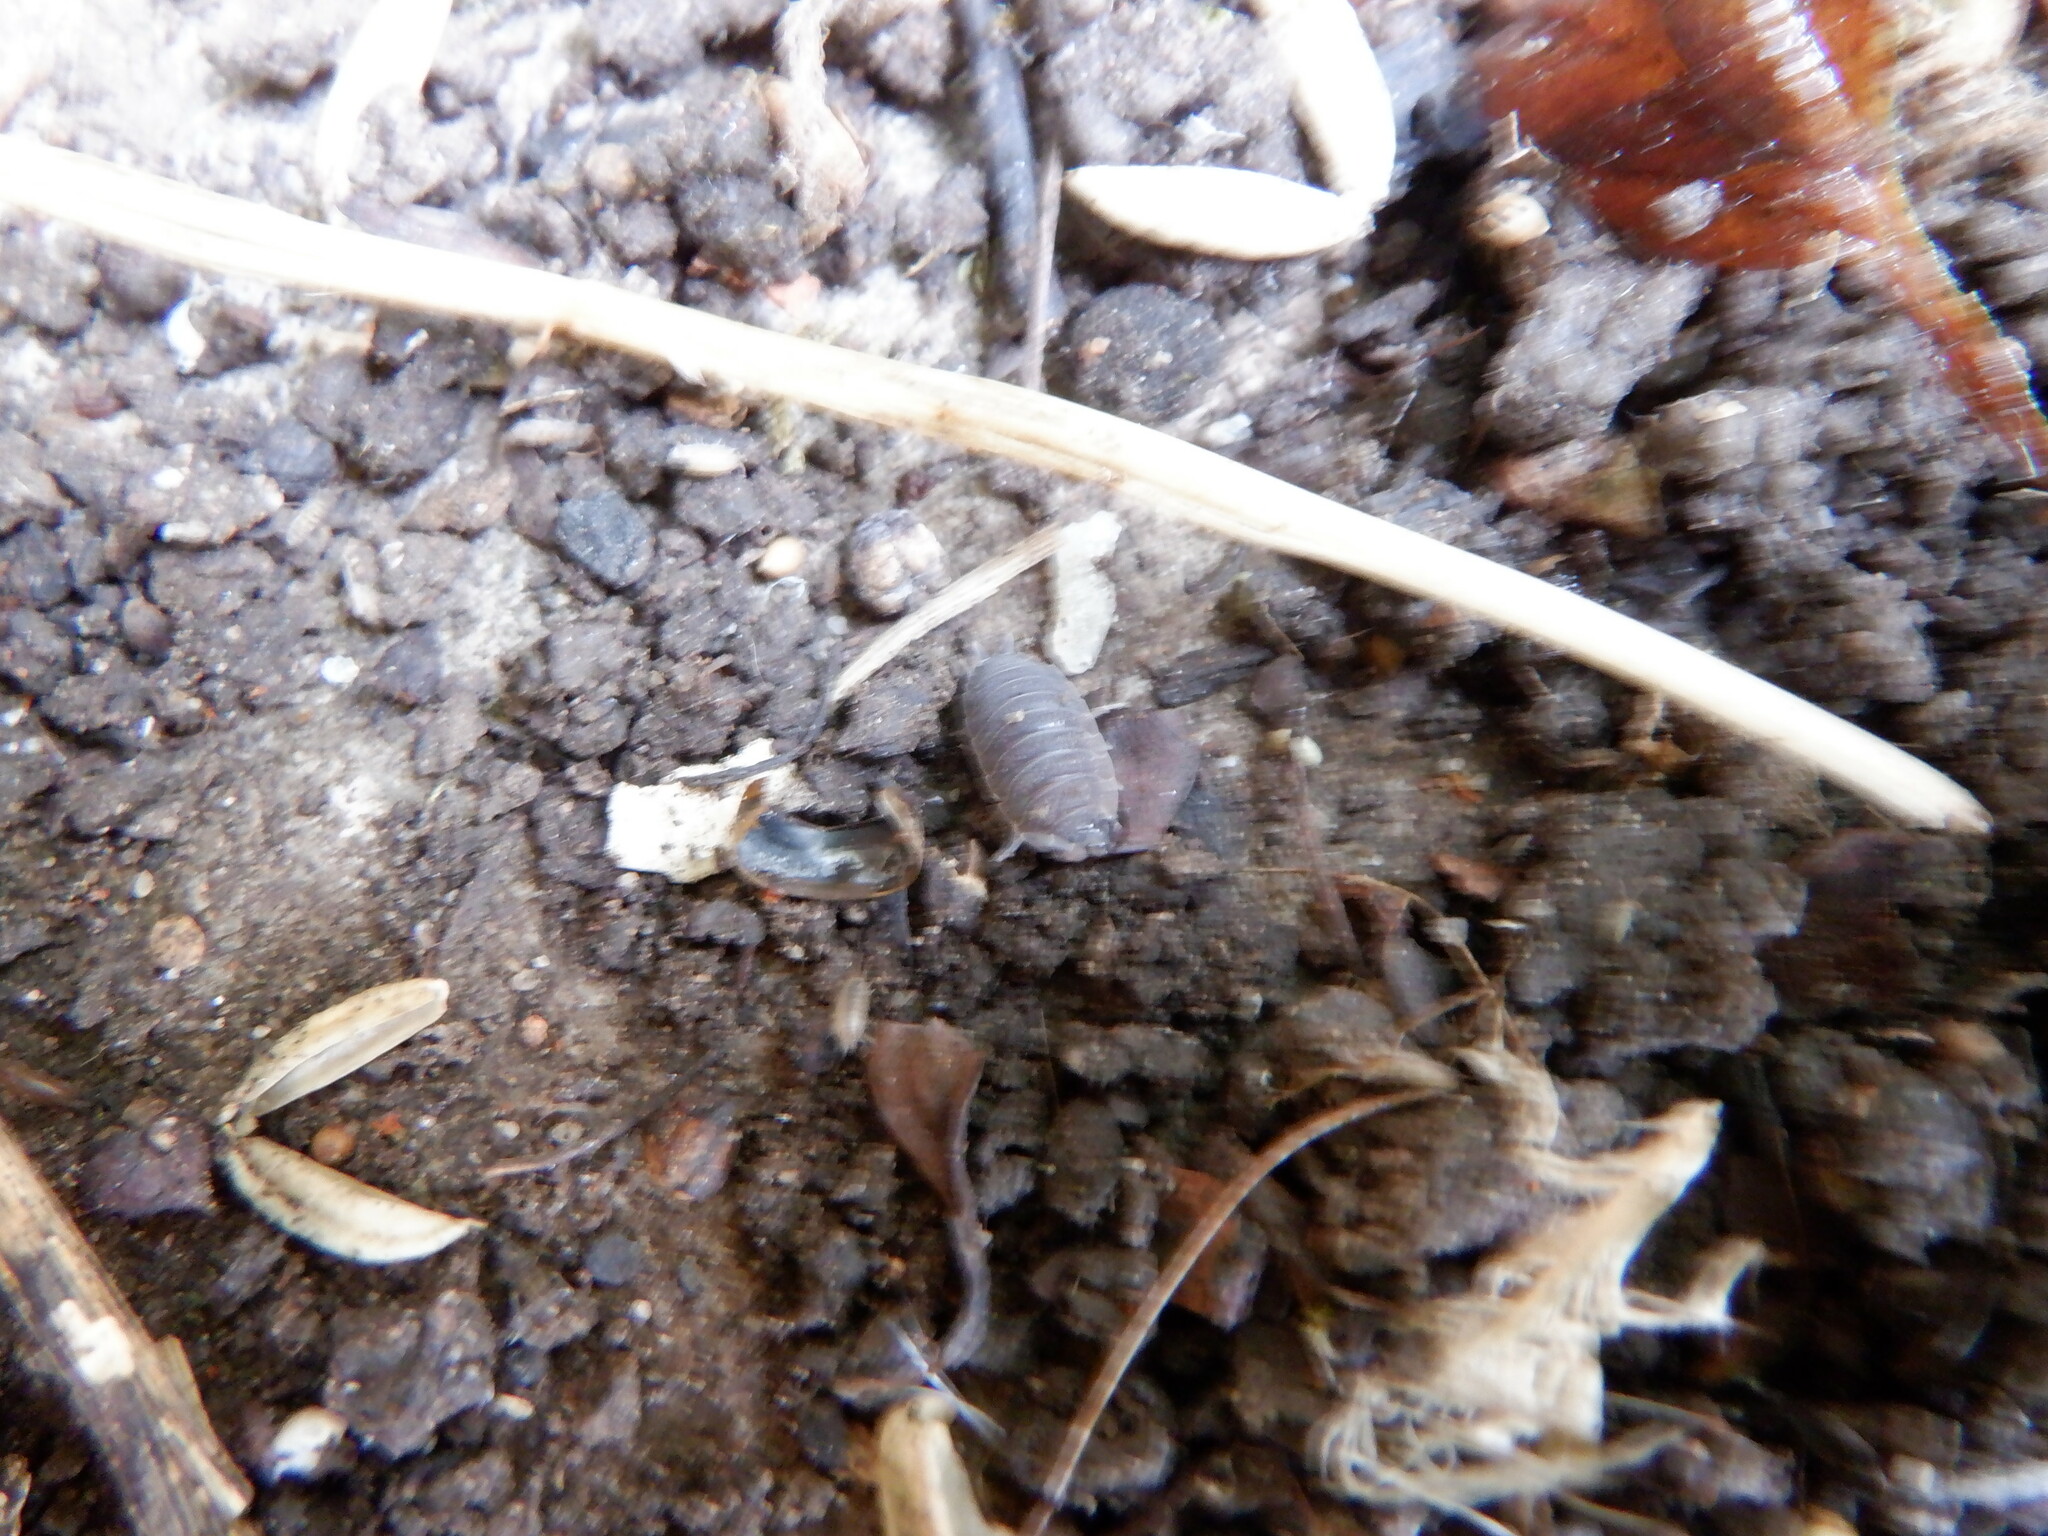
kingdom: Animalia
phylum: Arthropoda
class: Malacostraca
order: Isopoda
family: Porcellionidae
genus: Porcellio
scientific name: Porcellio scaber
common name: Common rough woodlouse
